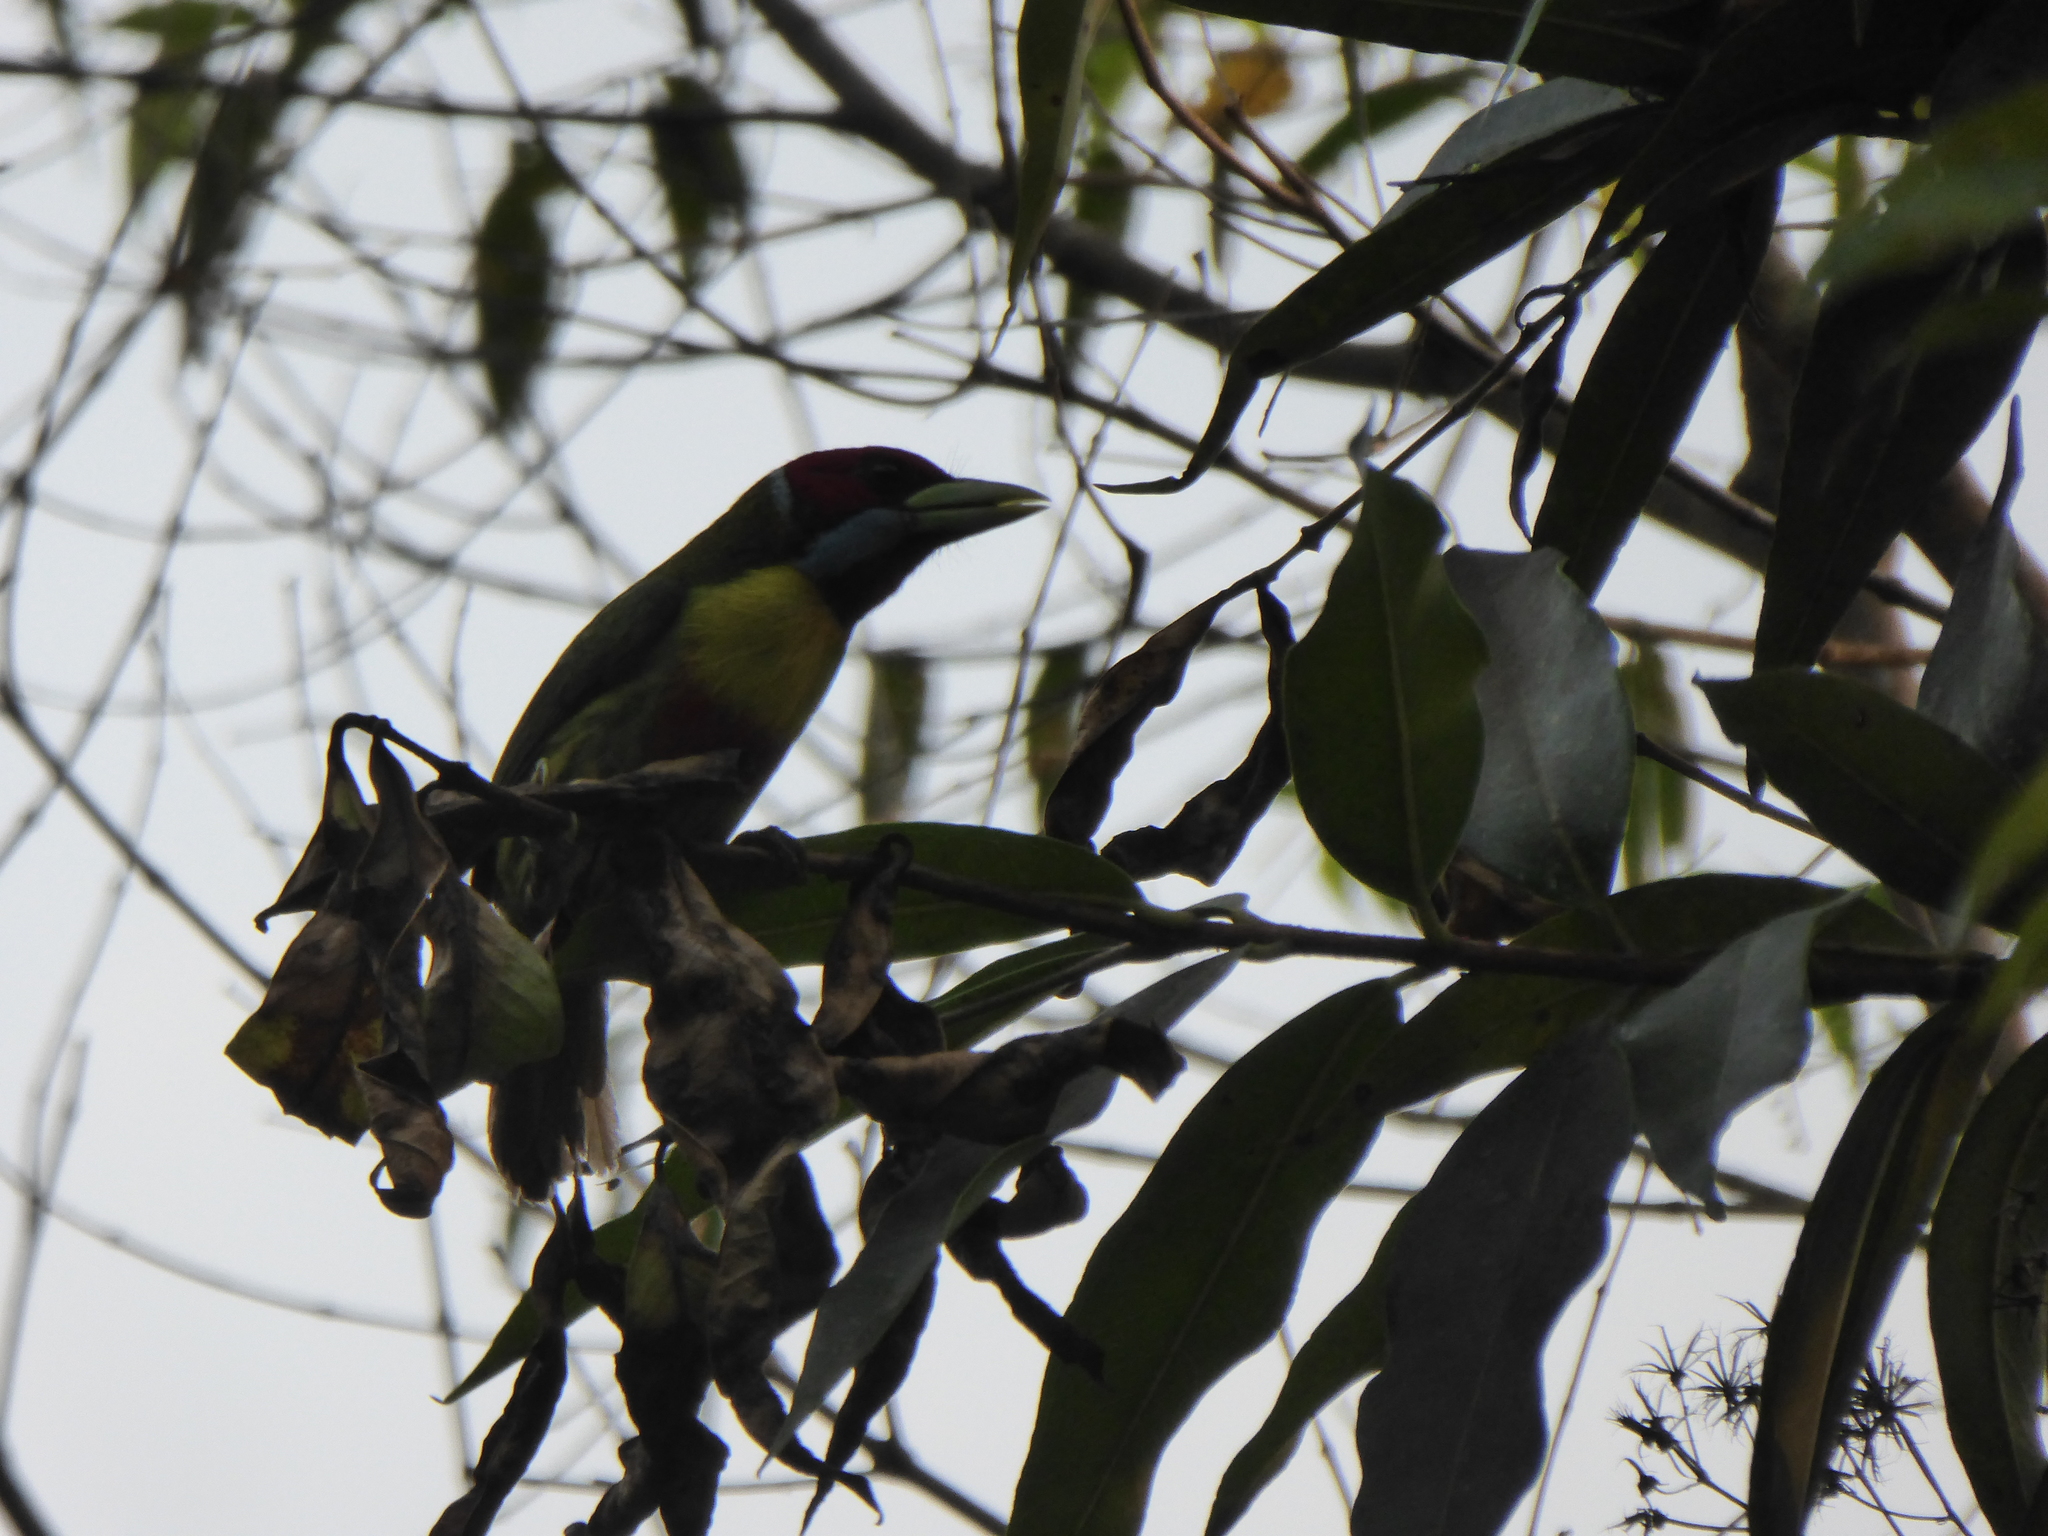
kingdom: Animalia
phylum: Chordata
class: Aves
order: Piciformes
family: Capitonidae
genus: Eubucco
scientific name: Eubucco versicolor
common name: Versicolored barbet
